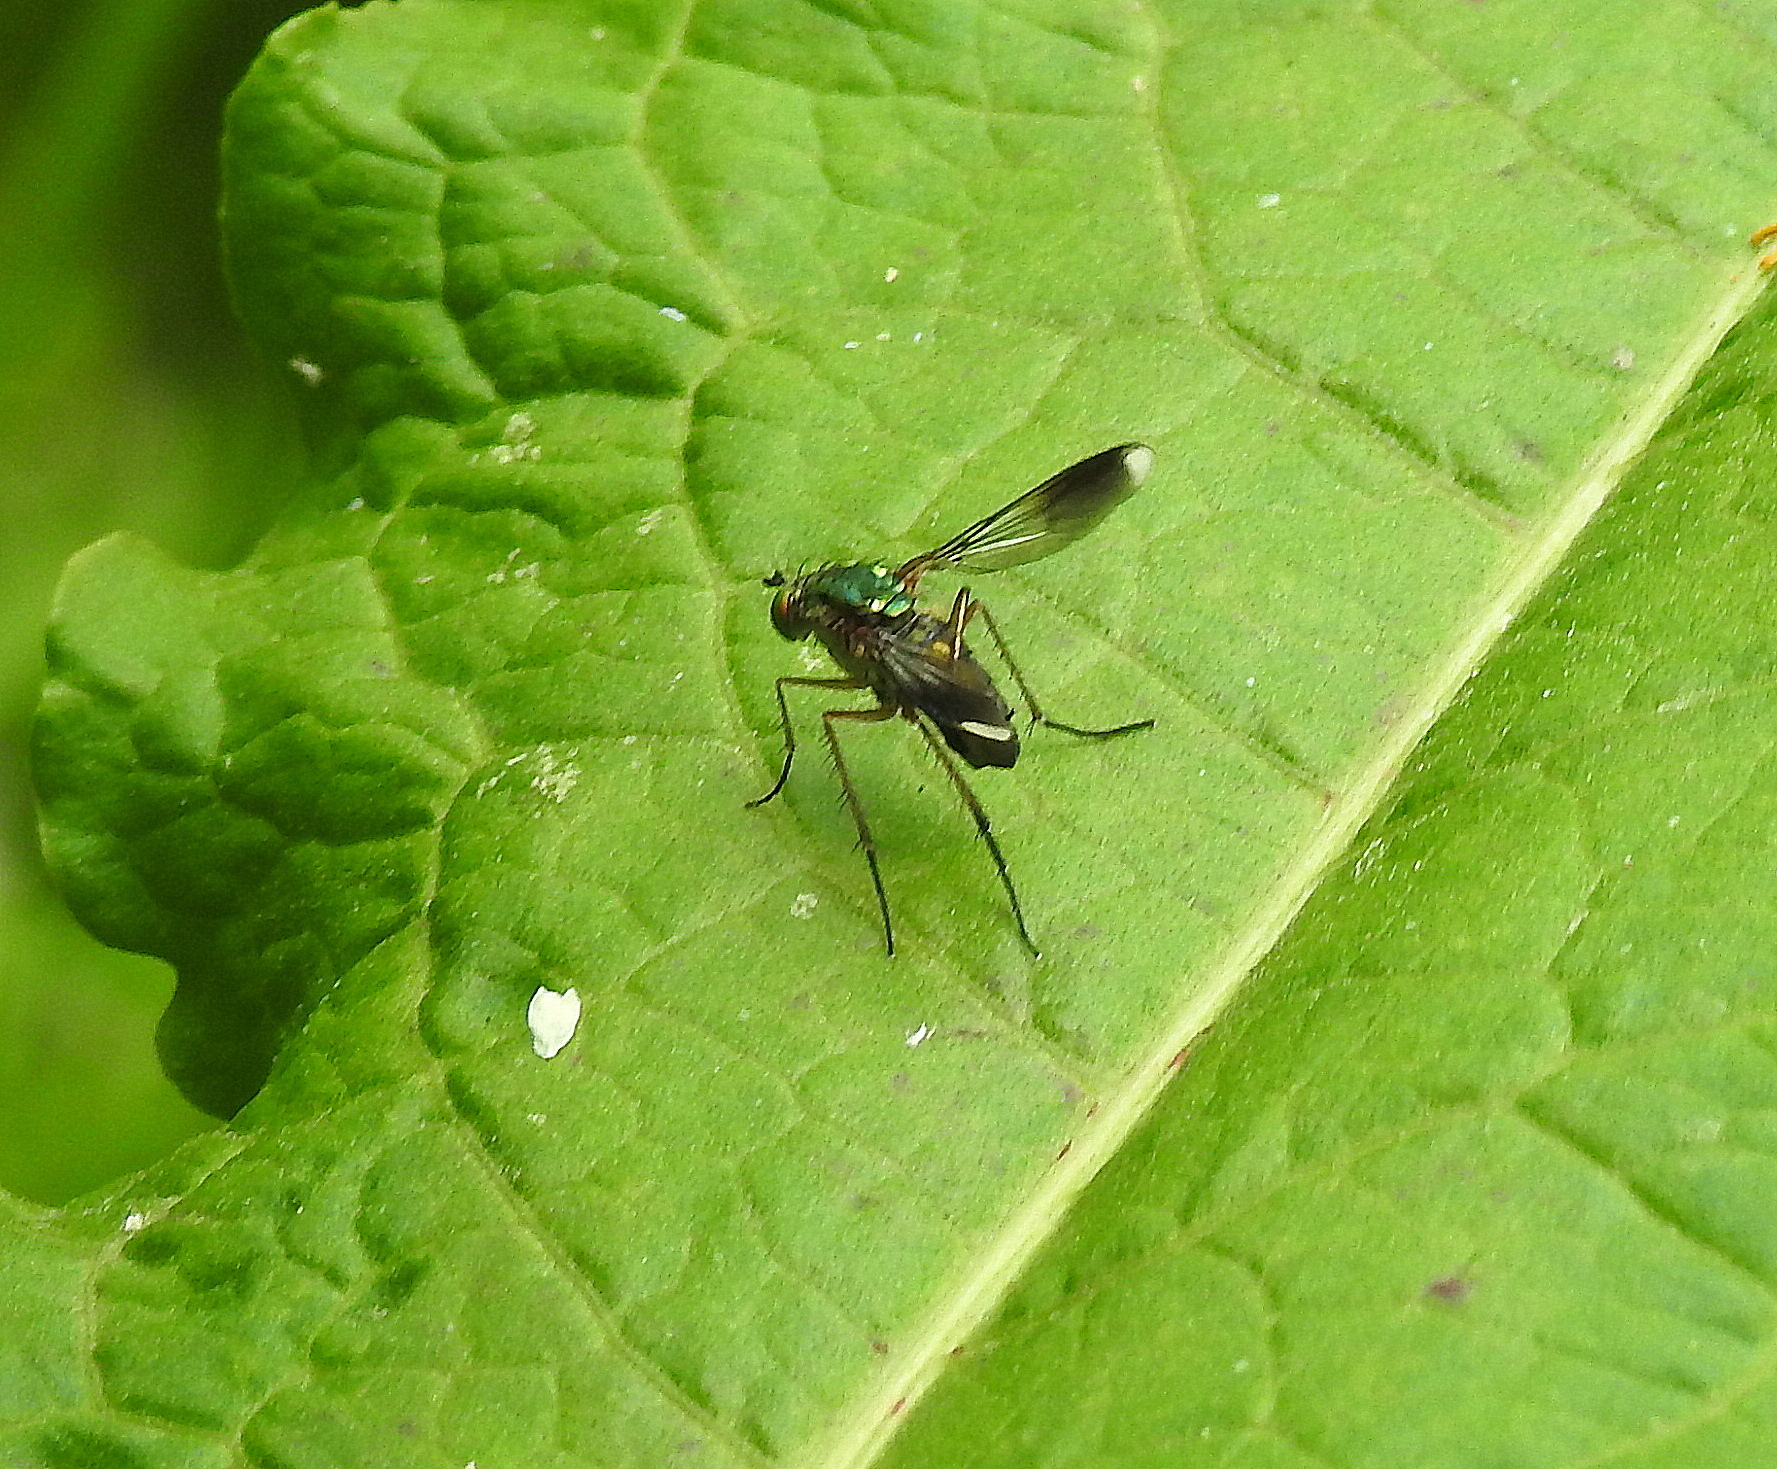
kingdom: Animalia
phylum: Arthropoda
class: Insecta
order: Diptera
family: Dolichopodidae
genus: Poecilobothrus
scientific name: Poecilobothrus nobilitatus
